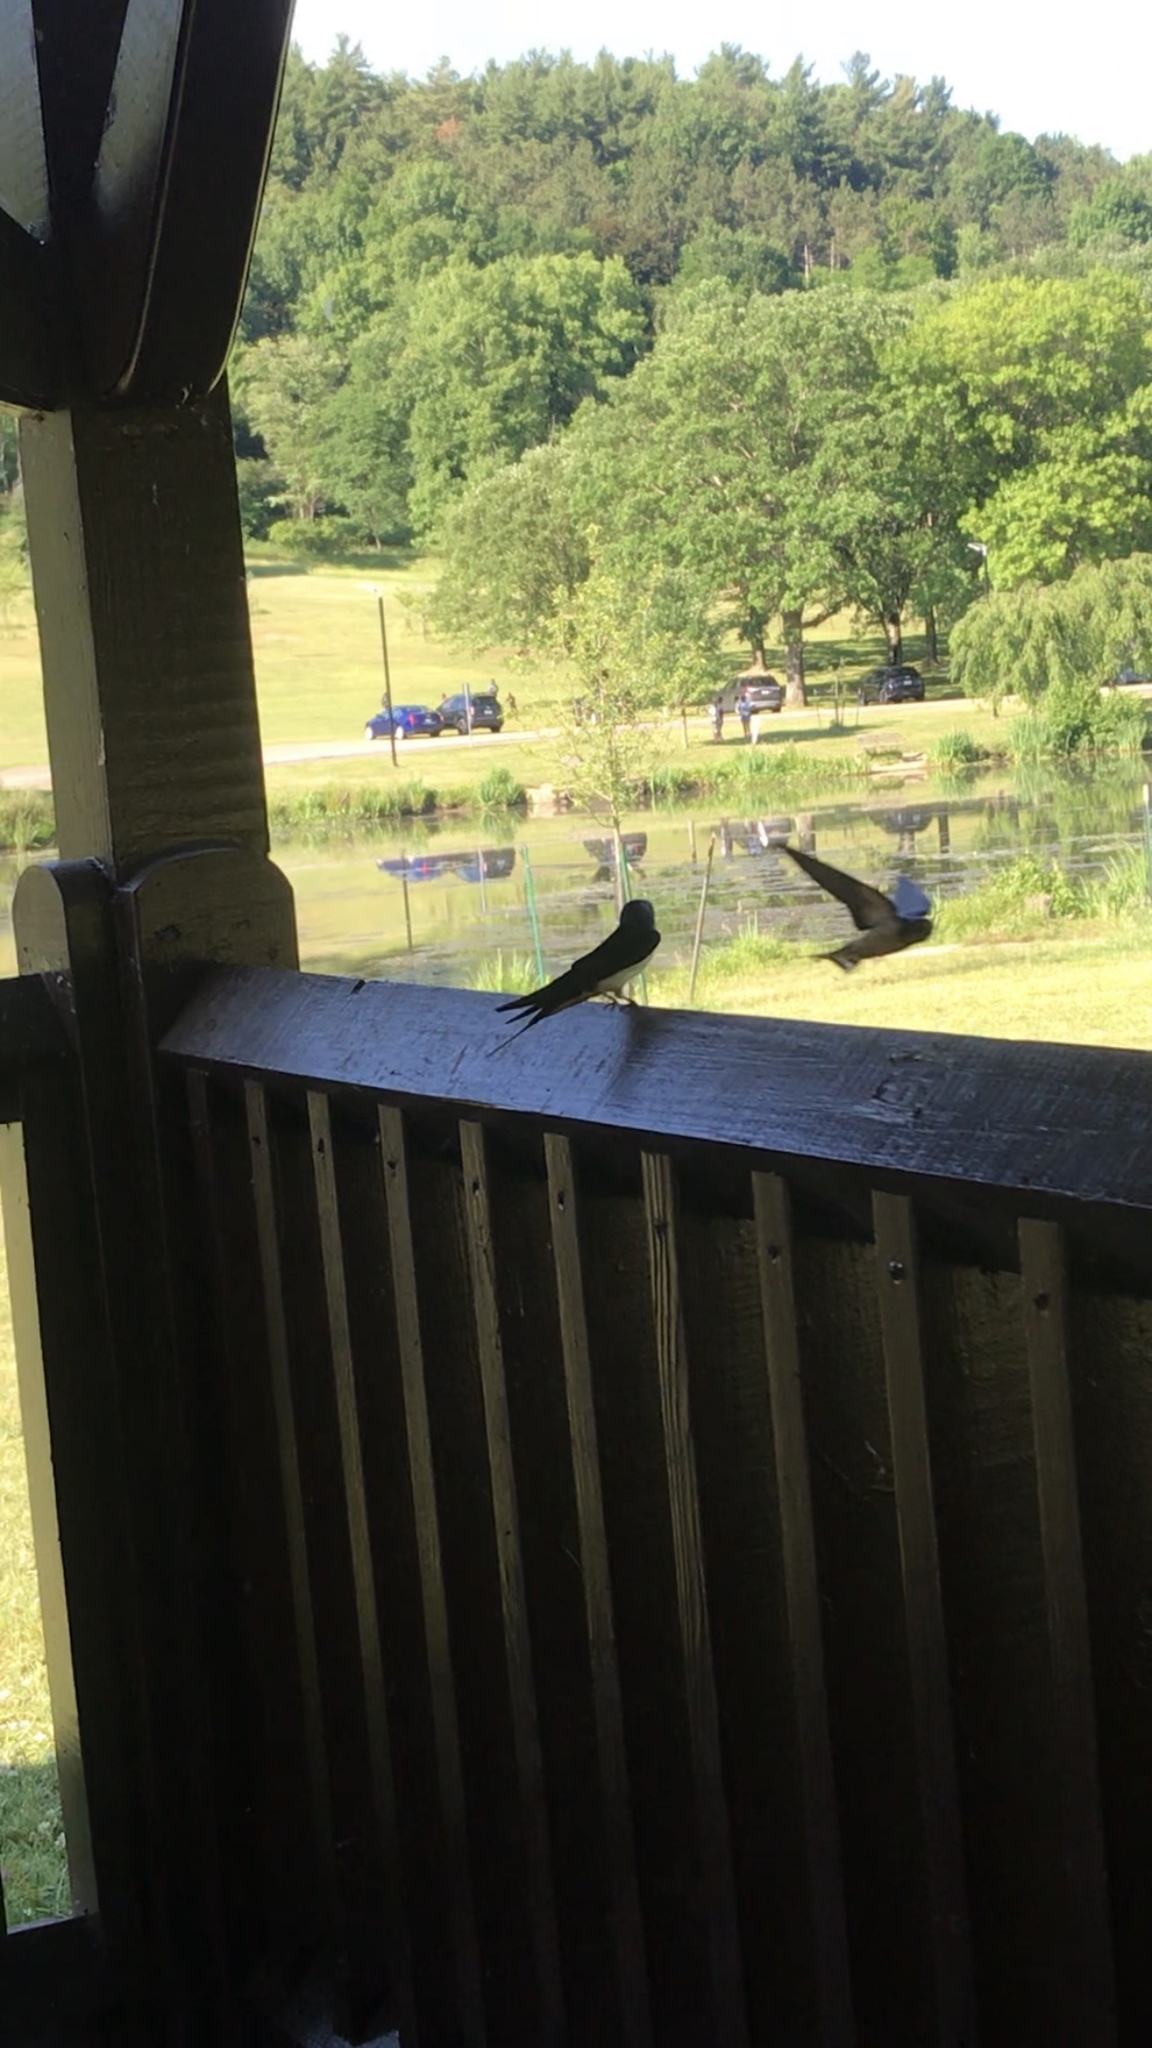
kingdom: Animalia
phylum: Chordata
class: Aves
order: Passeriformes
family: Hirundinidae
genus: Hirundo
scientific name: Hirundo rustica
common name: Barn swallow
